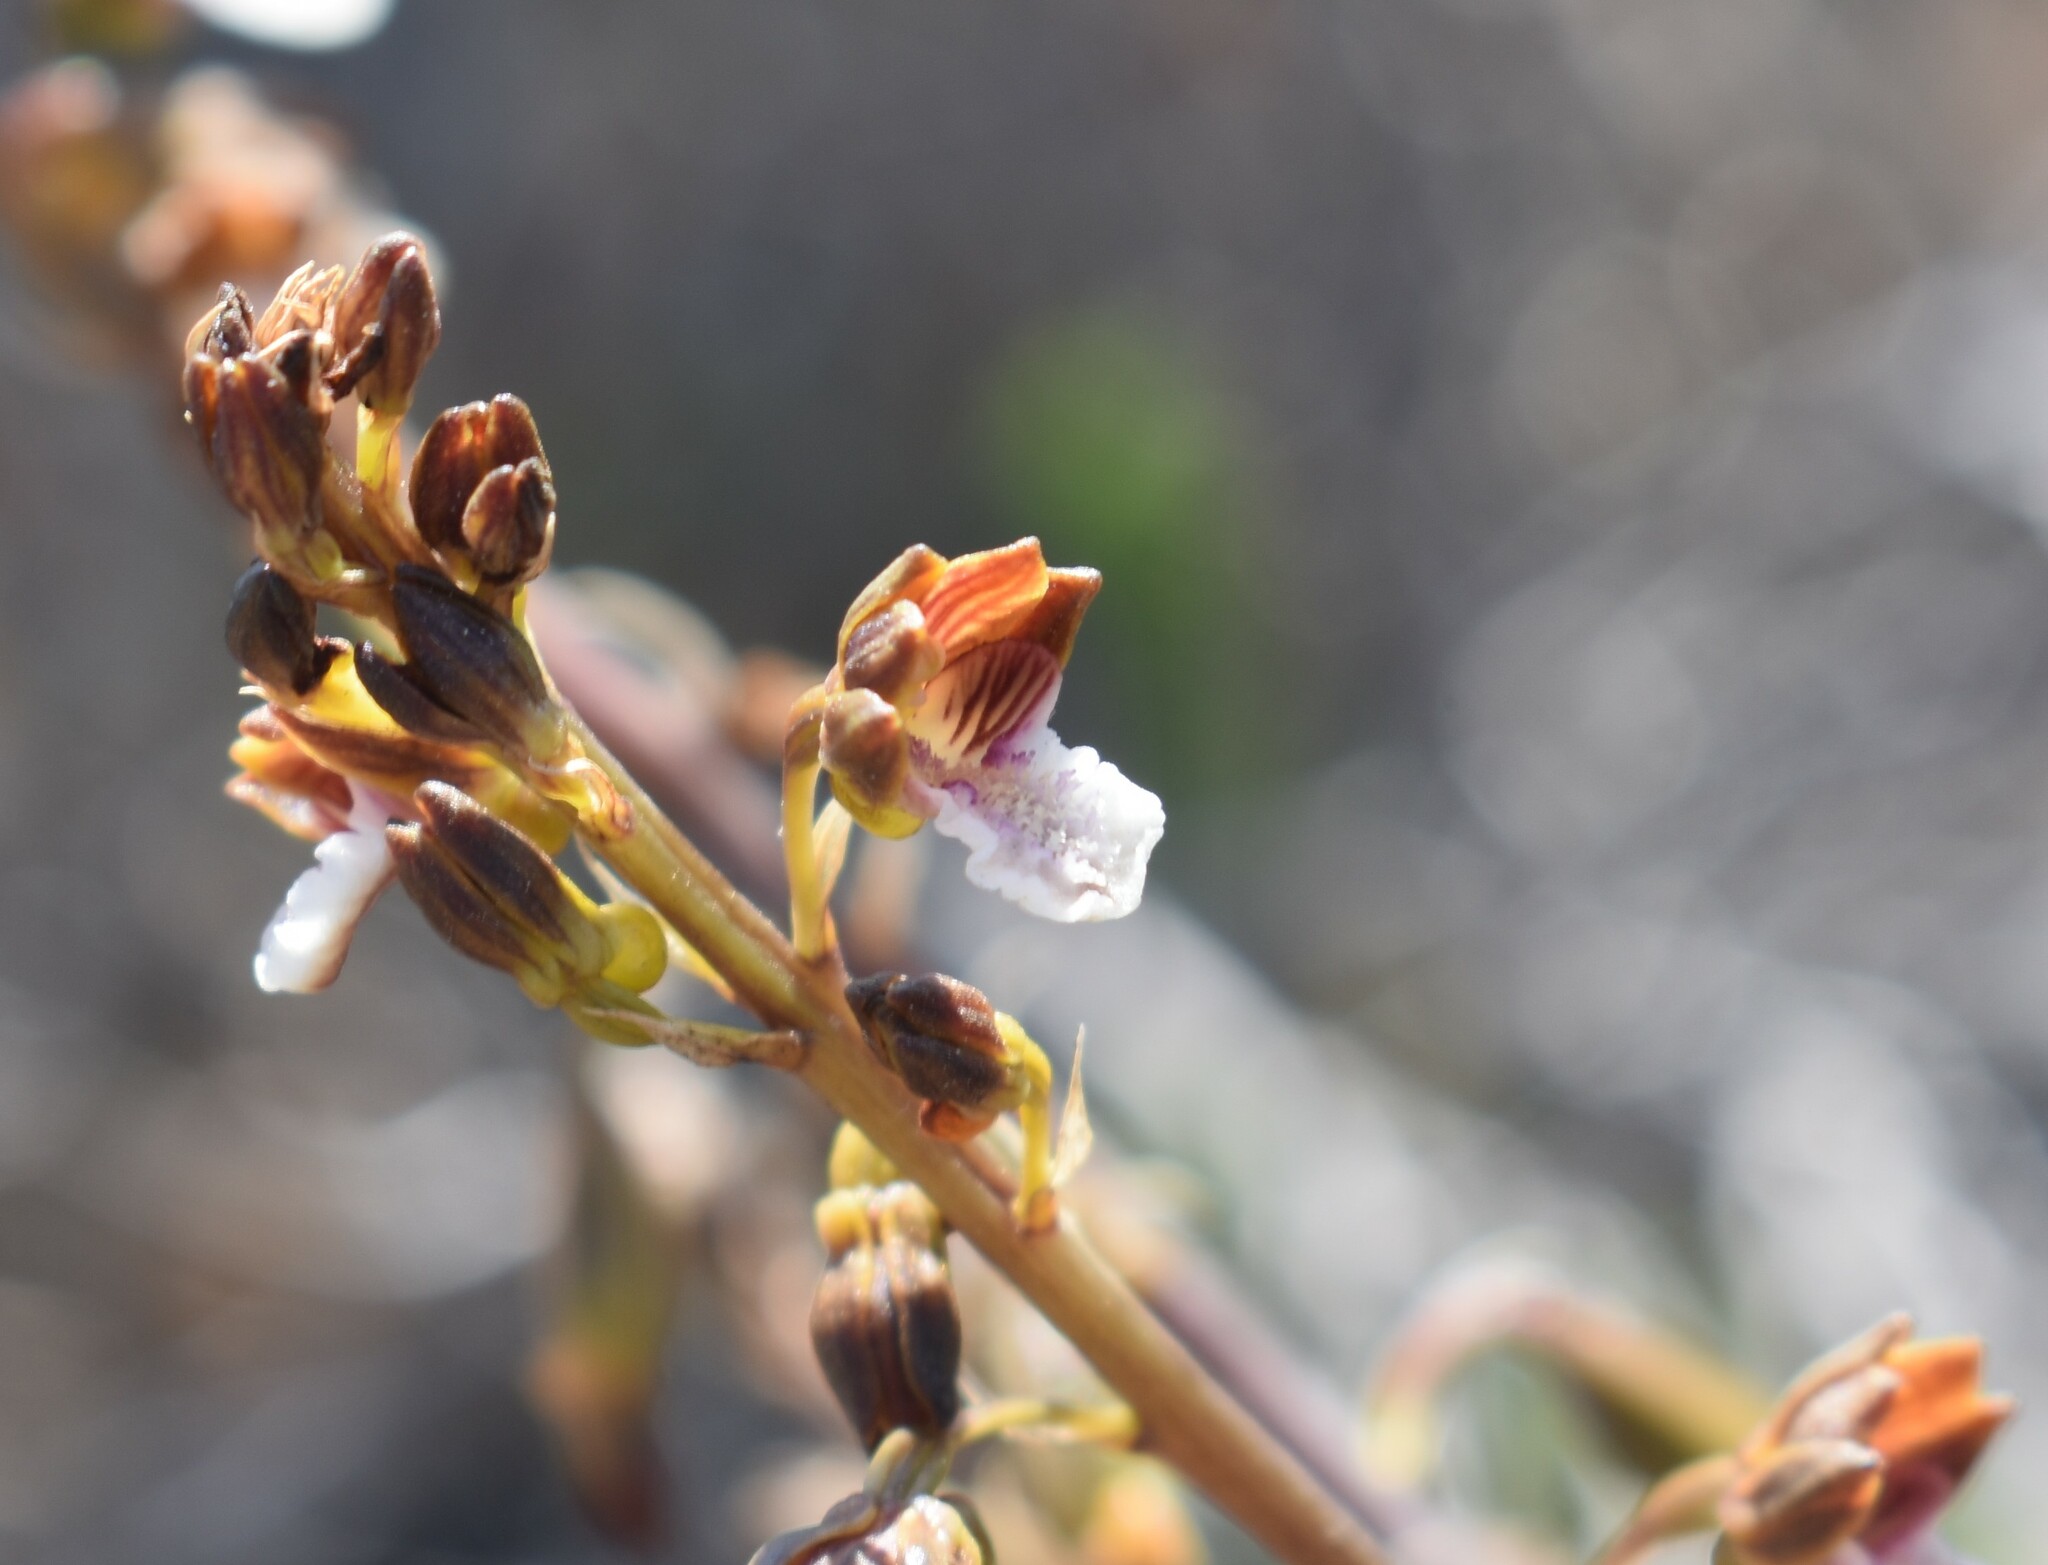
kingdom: Plantae
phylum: Tracheophyta
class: Liliopsida
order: Asparagales
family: Orchidaceae
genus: Eulophia
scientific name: Eulophia micrantha
